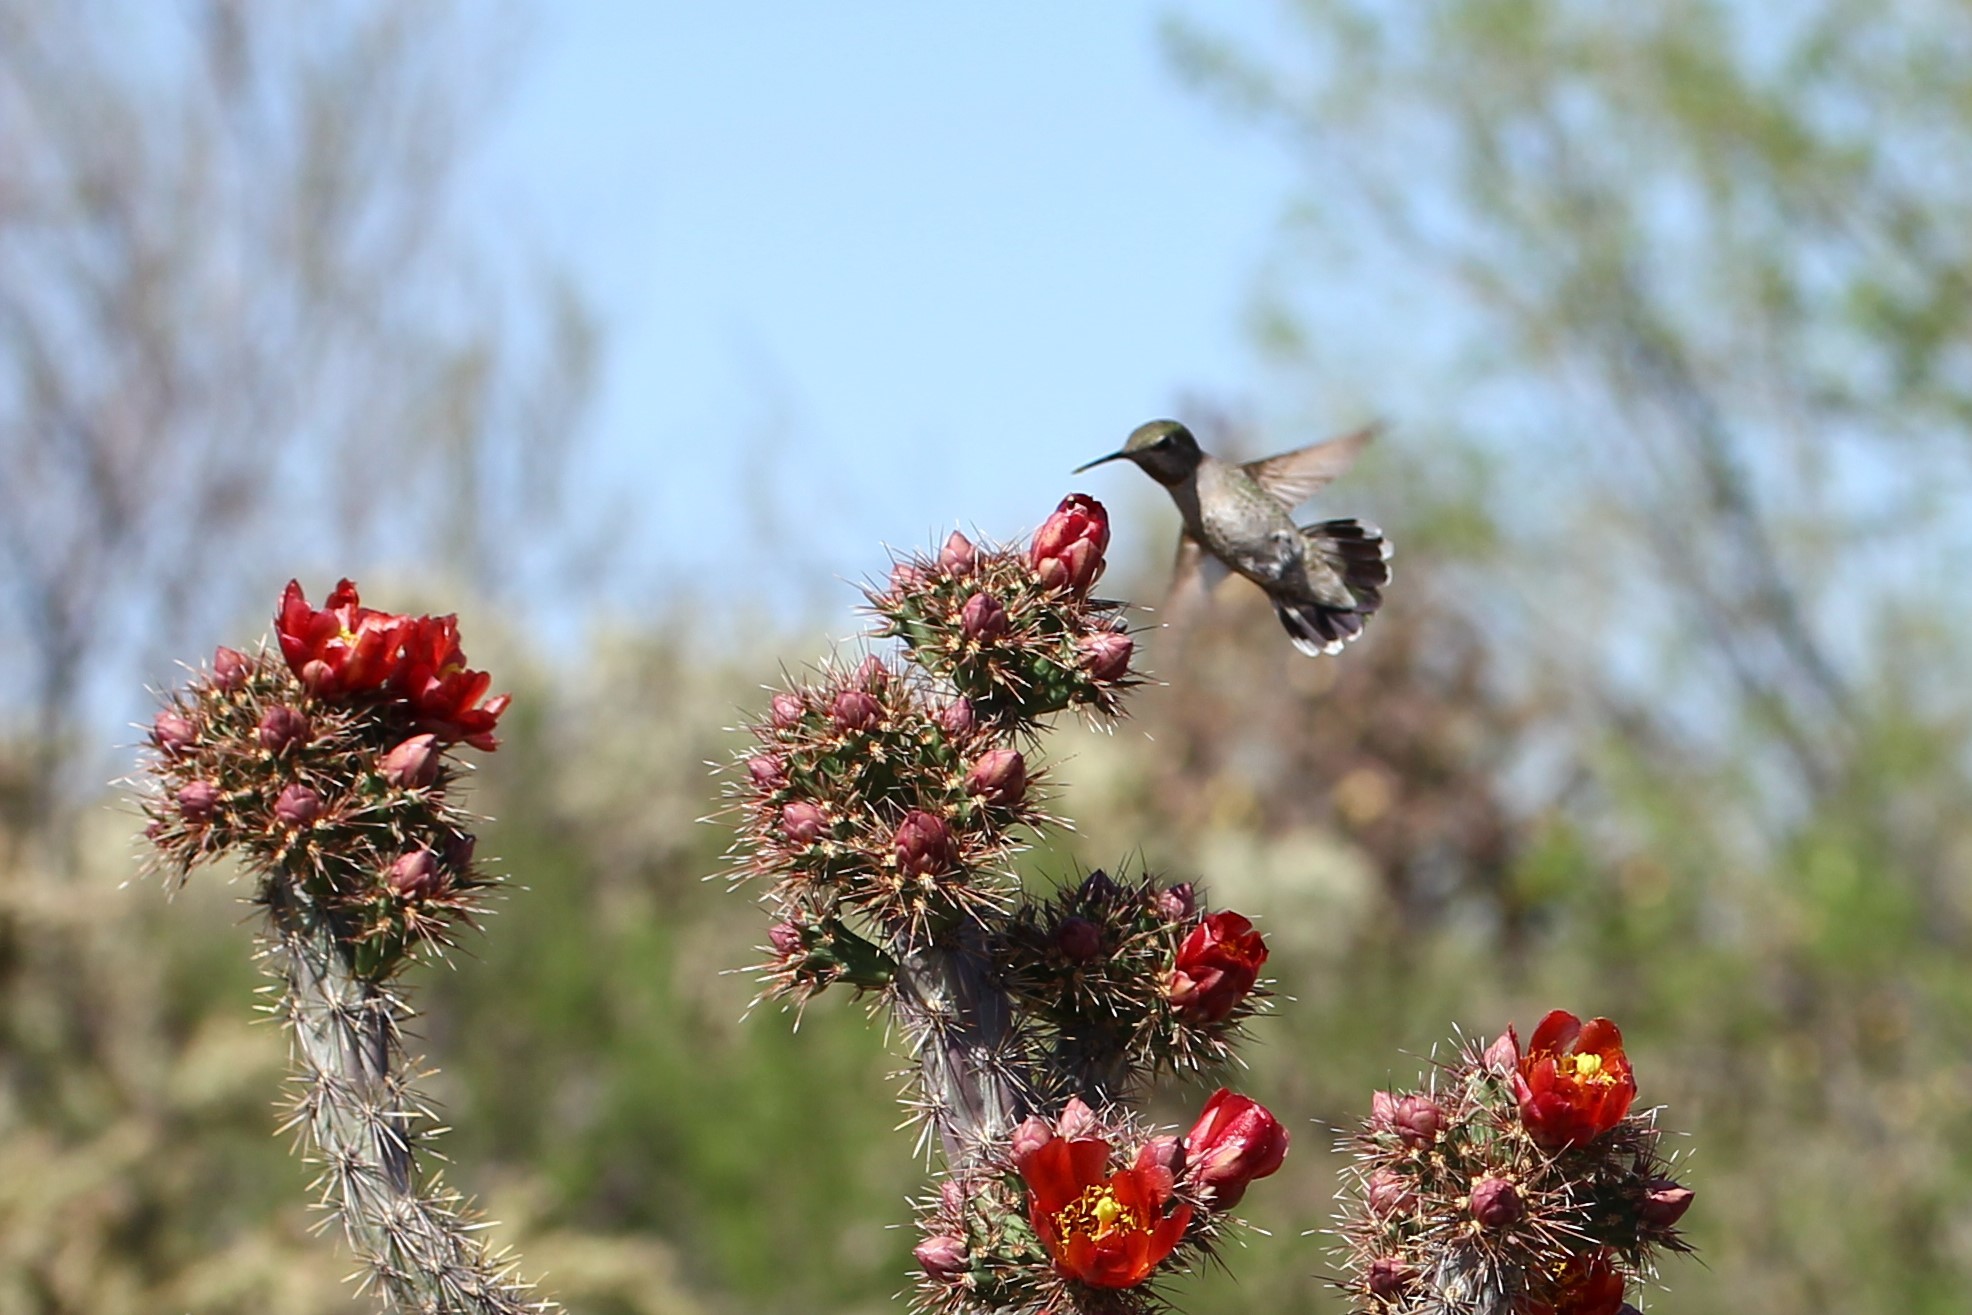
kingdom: Animalia
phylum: Chordata
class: Aves
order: Apodiformes
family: Trochilidae
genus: Calypte
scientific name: Calypte anna
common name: Anna's hummingbird
